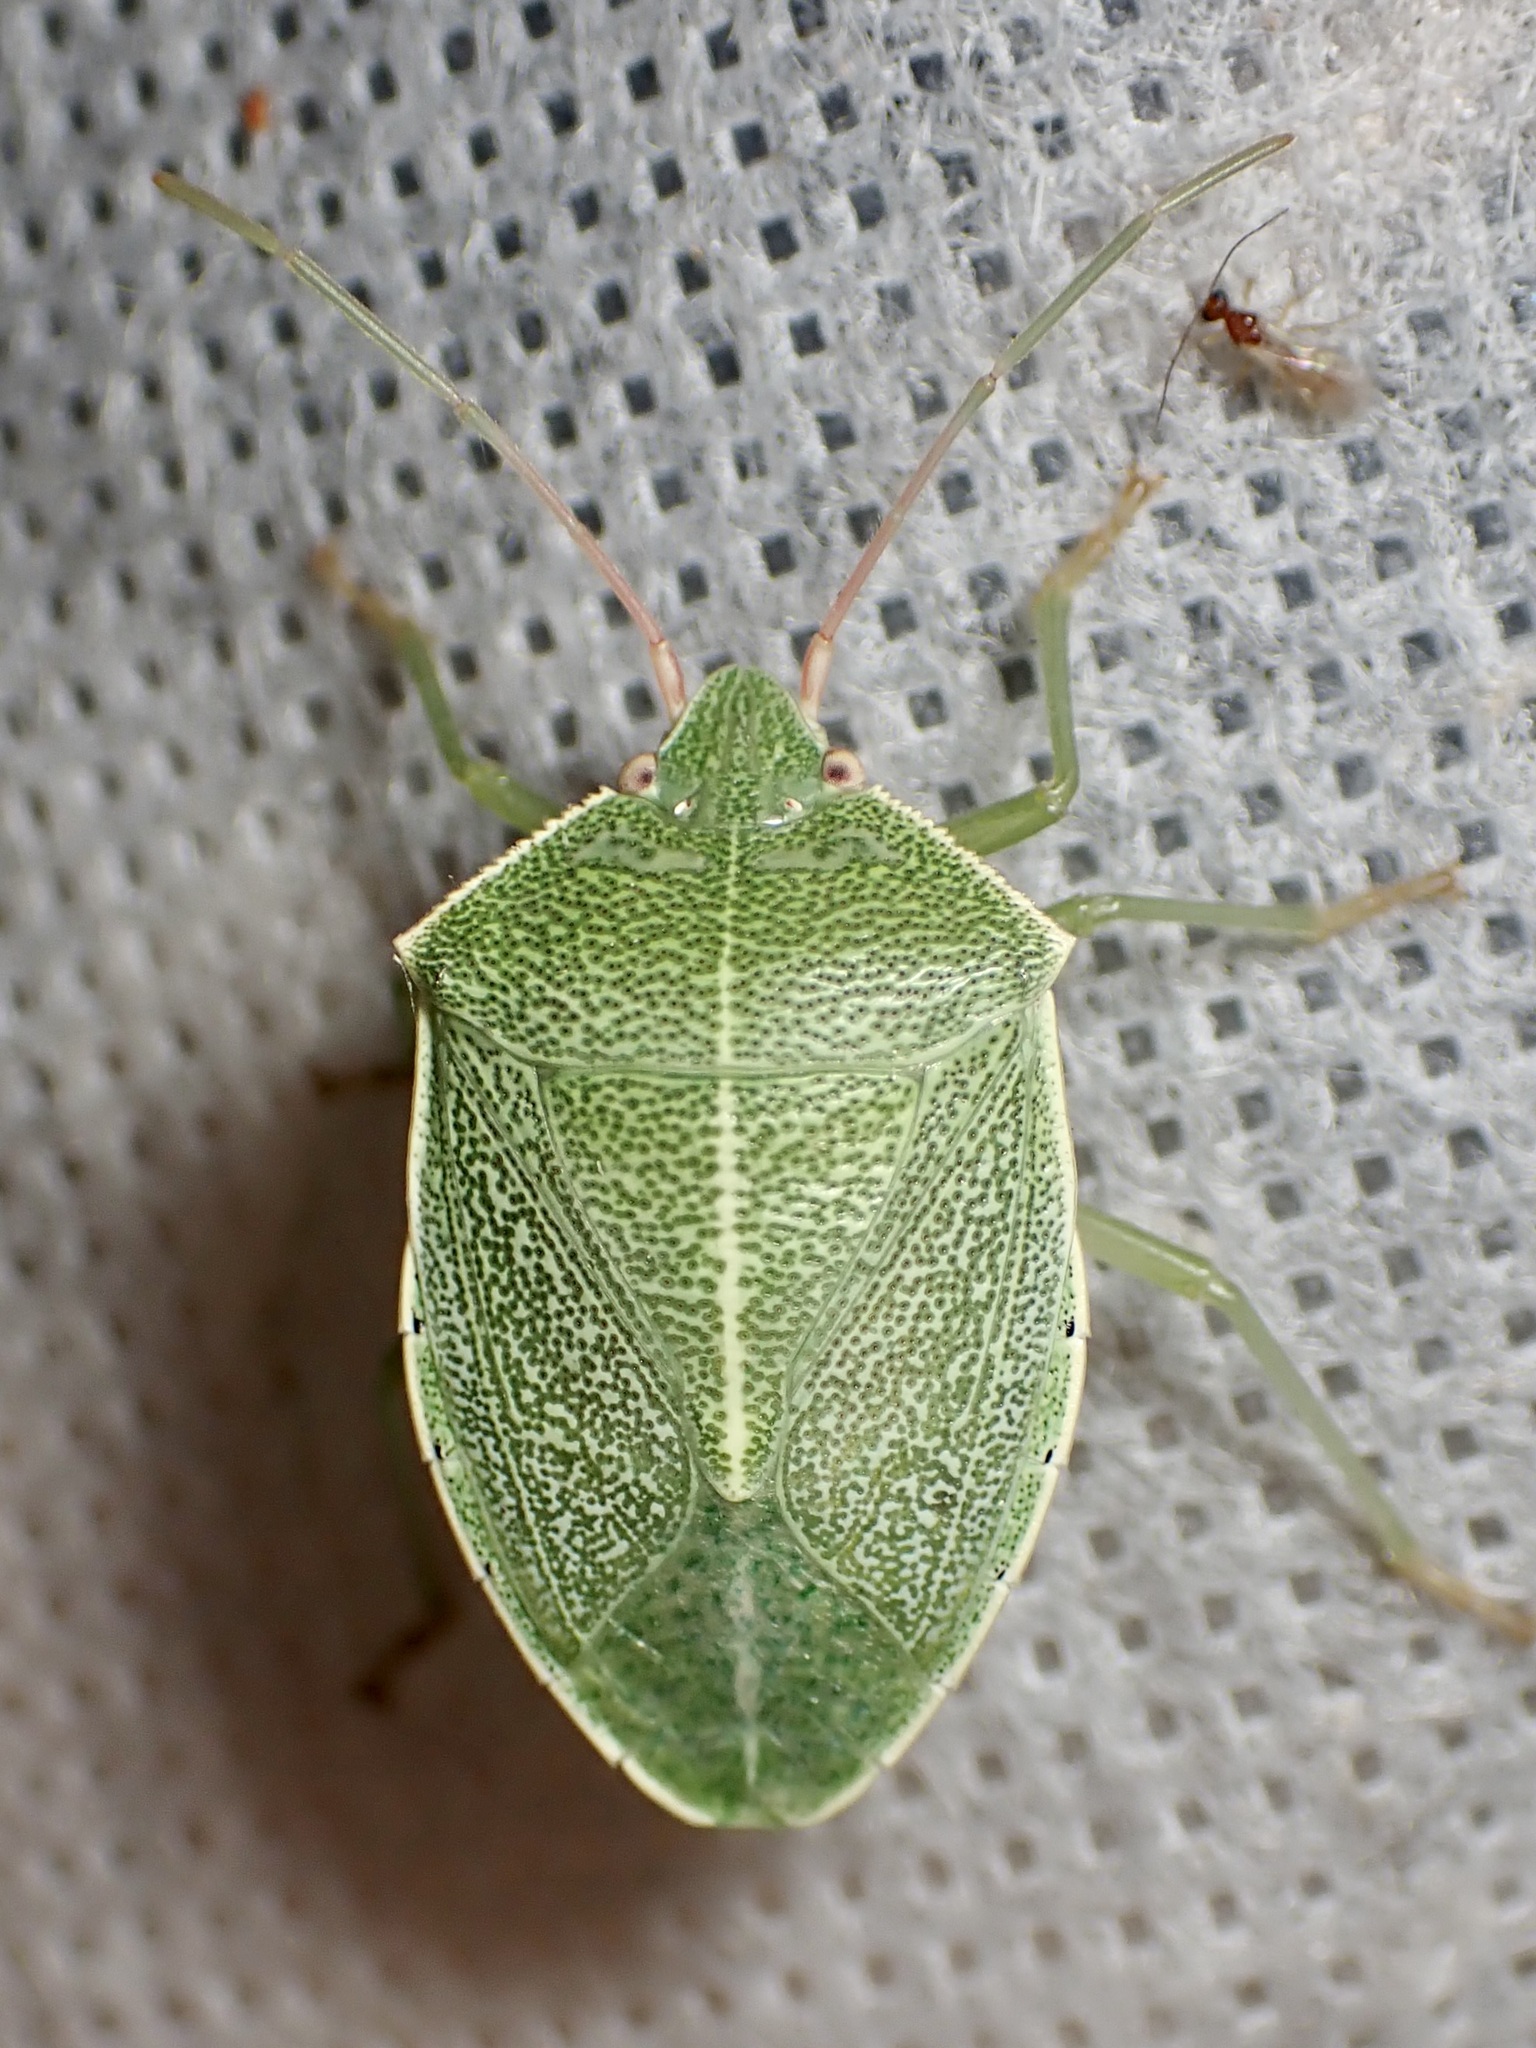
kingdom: Animalia
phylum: Arthropoda
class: Insecta
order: Hemiptera
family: Pentatomidae
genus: Chlorocoris
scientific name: Chlorocoris hebetatus
